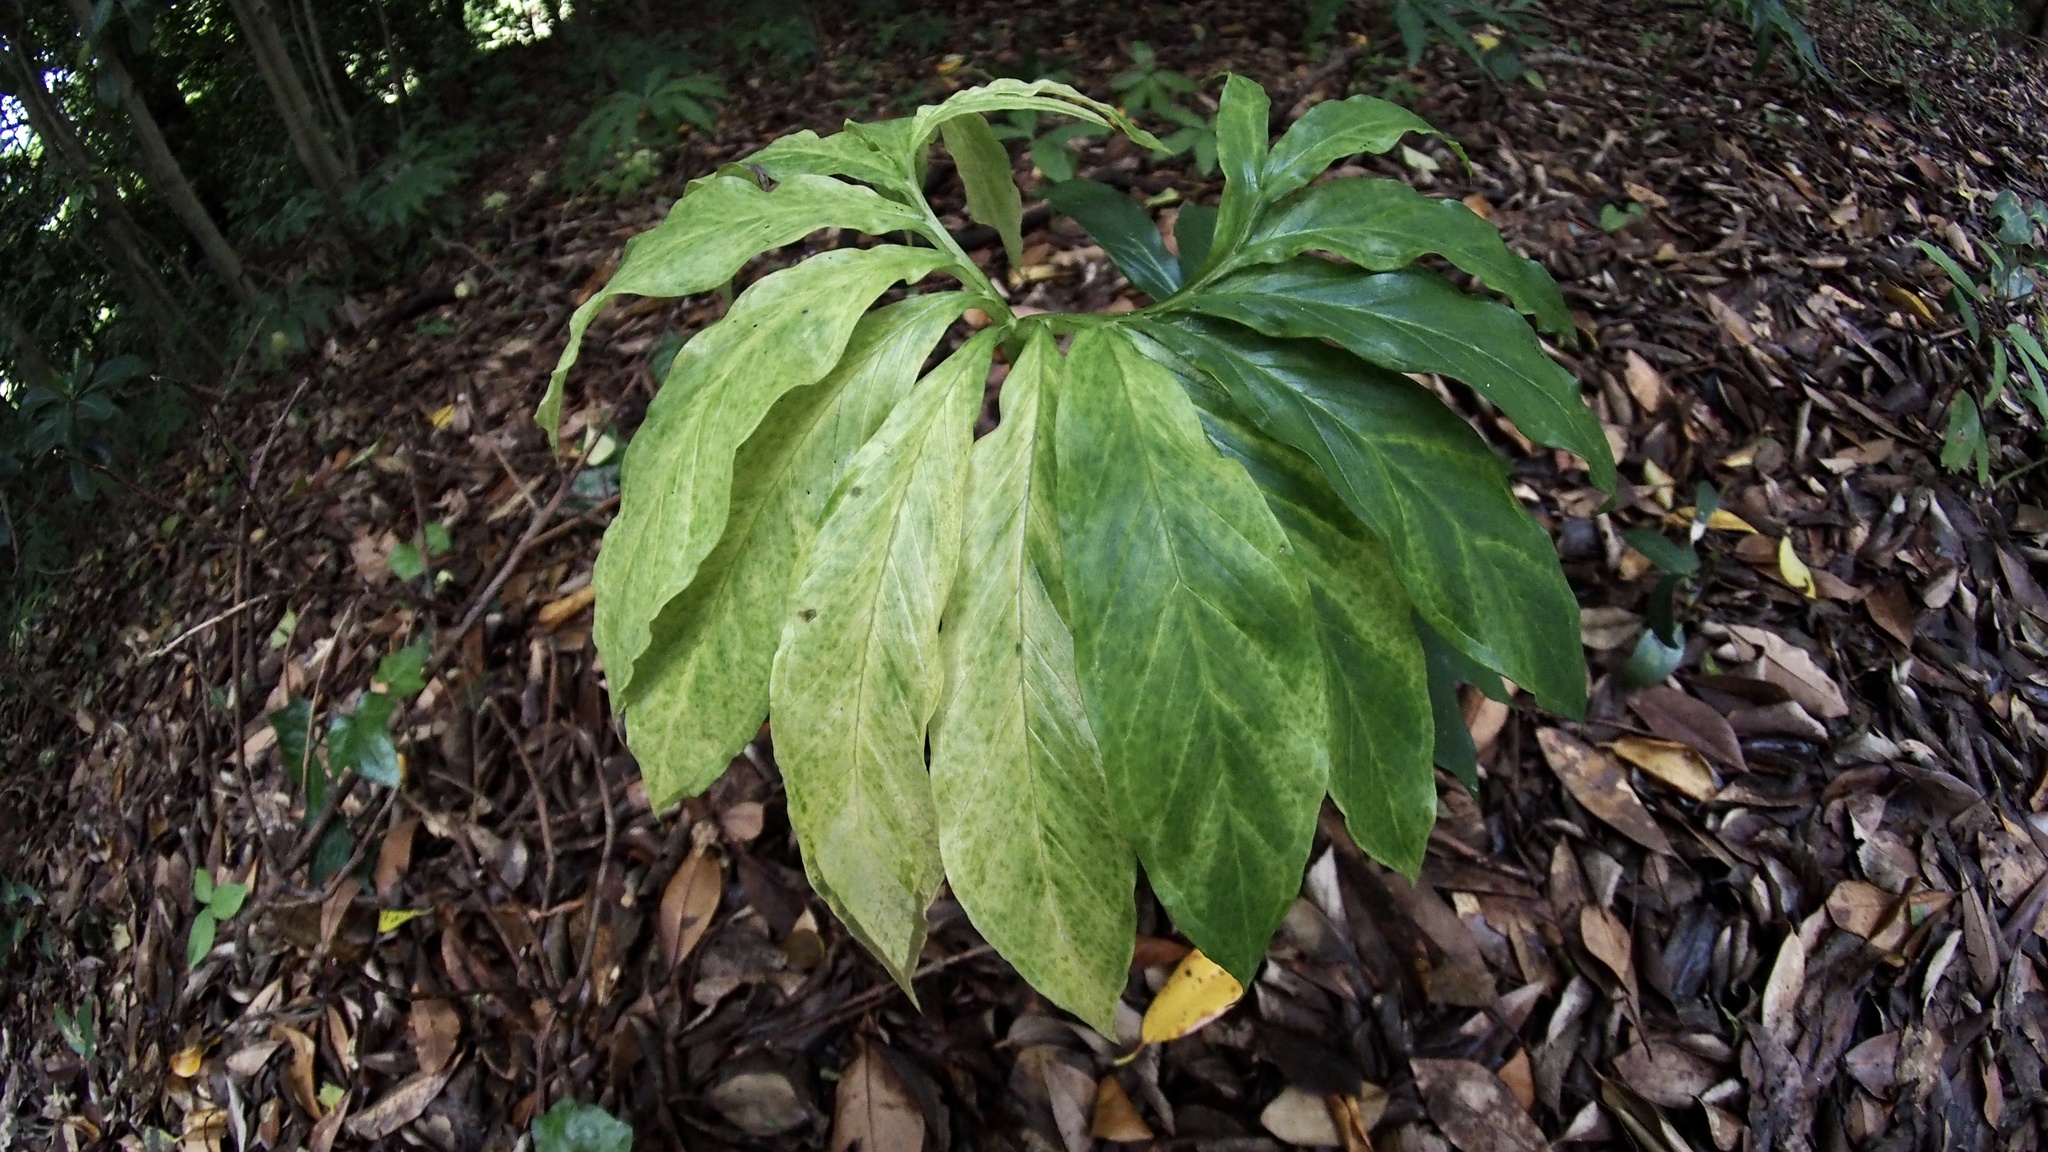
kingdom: Plantae
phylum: Tracheophyta
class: Liliopsida
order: Alismatales
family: Araceae
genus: Arisaema
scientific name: Arisaema thunbergii
